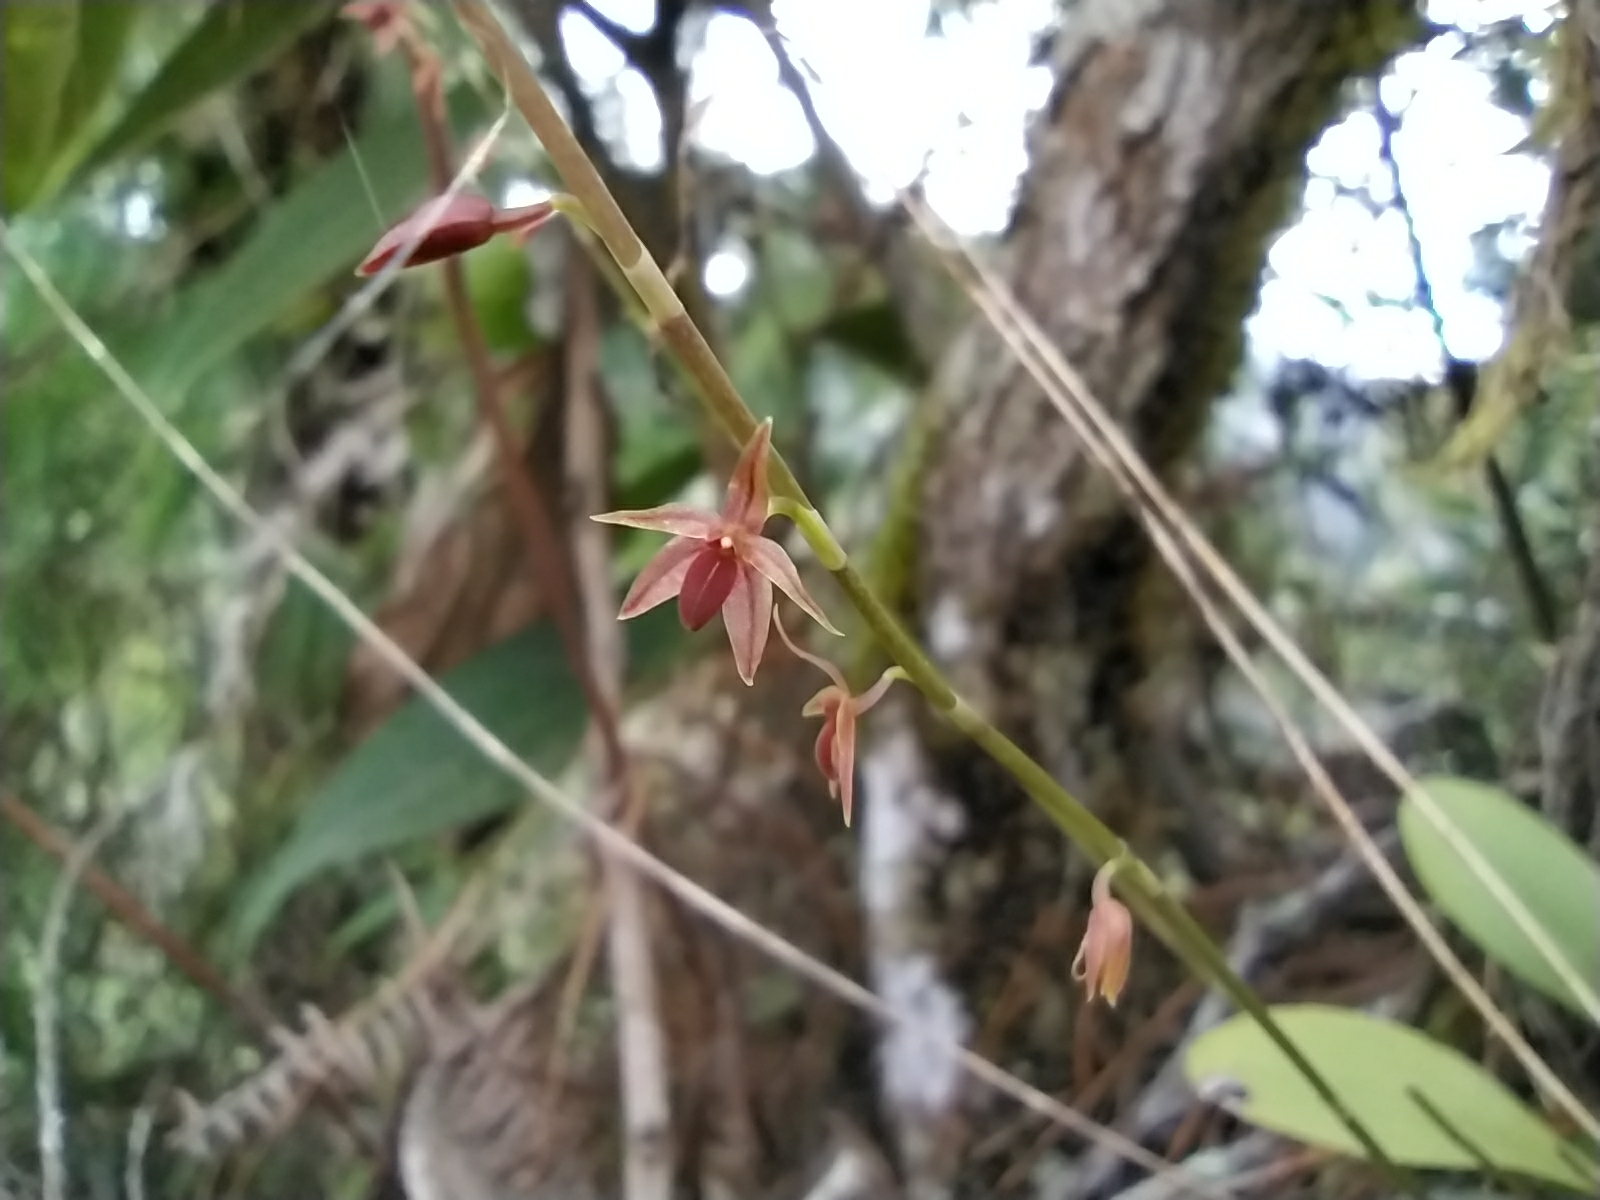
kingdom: Plantae
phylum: Tracheophyta
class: Liliopsida
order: Asparagales
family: Orchidaceae
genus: Platystele
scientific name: Platystele consobrina
